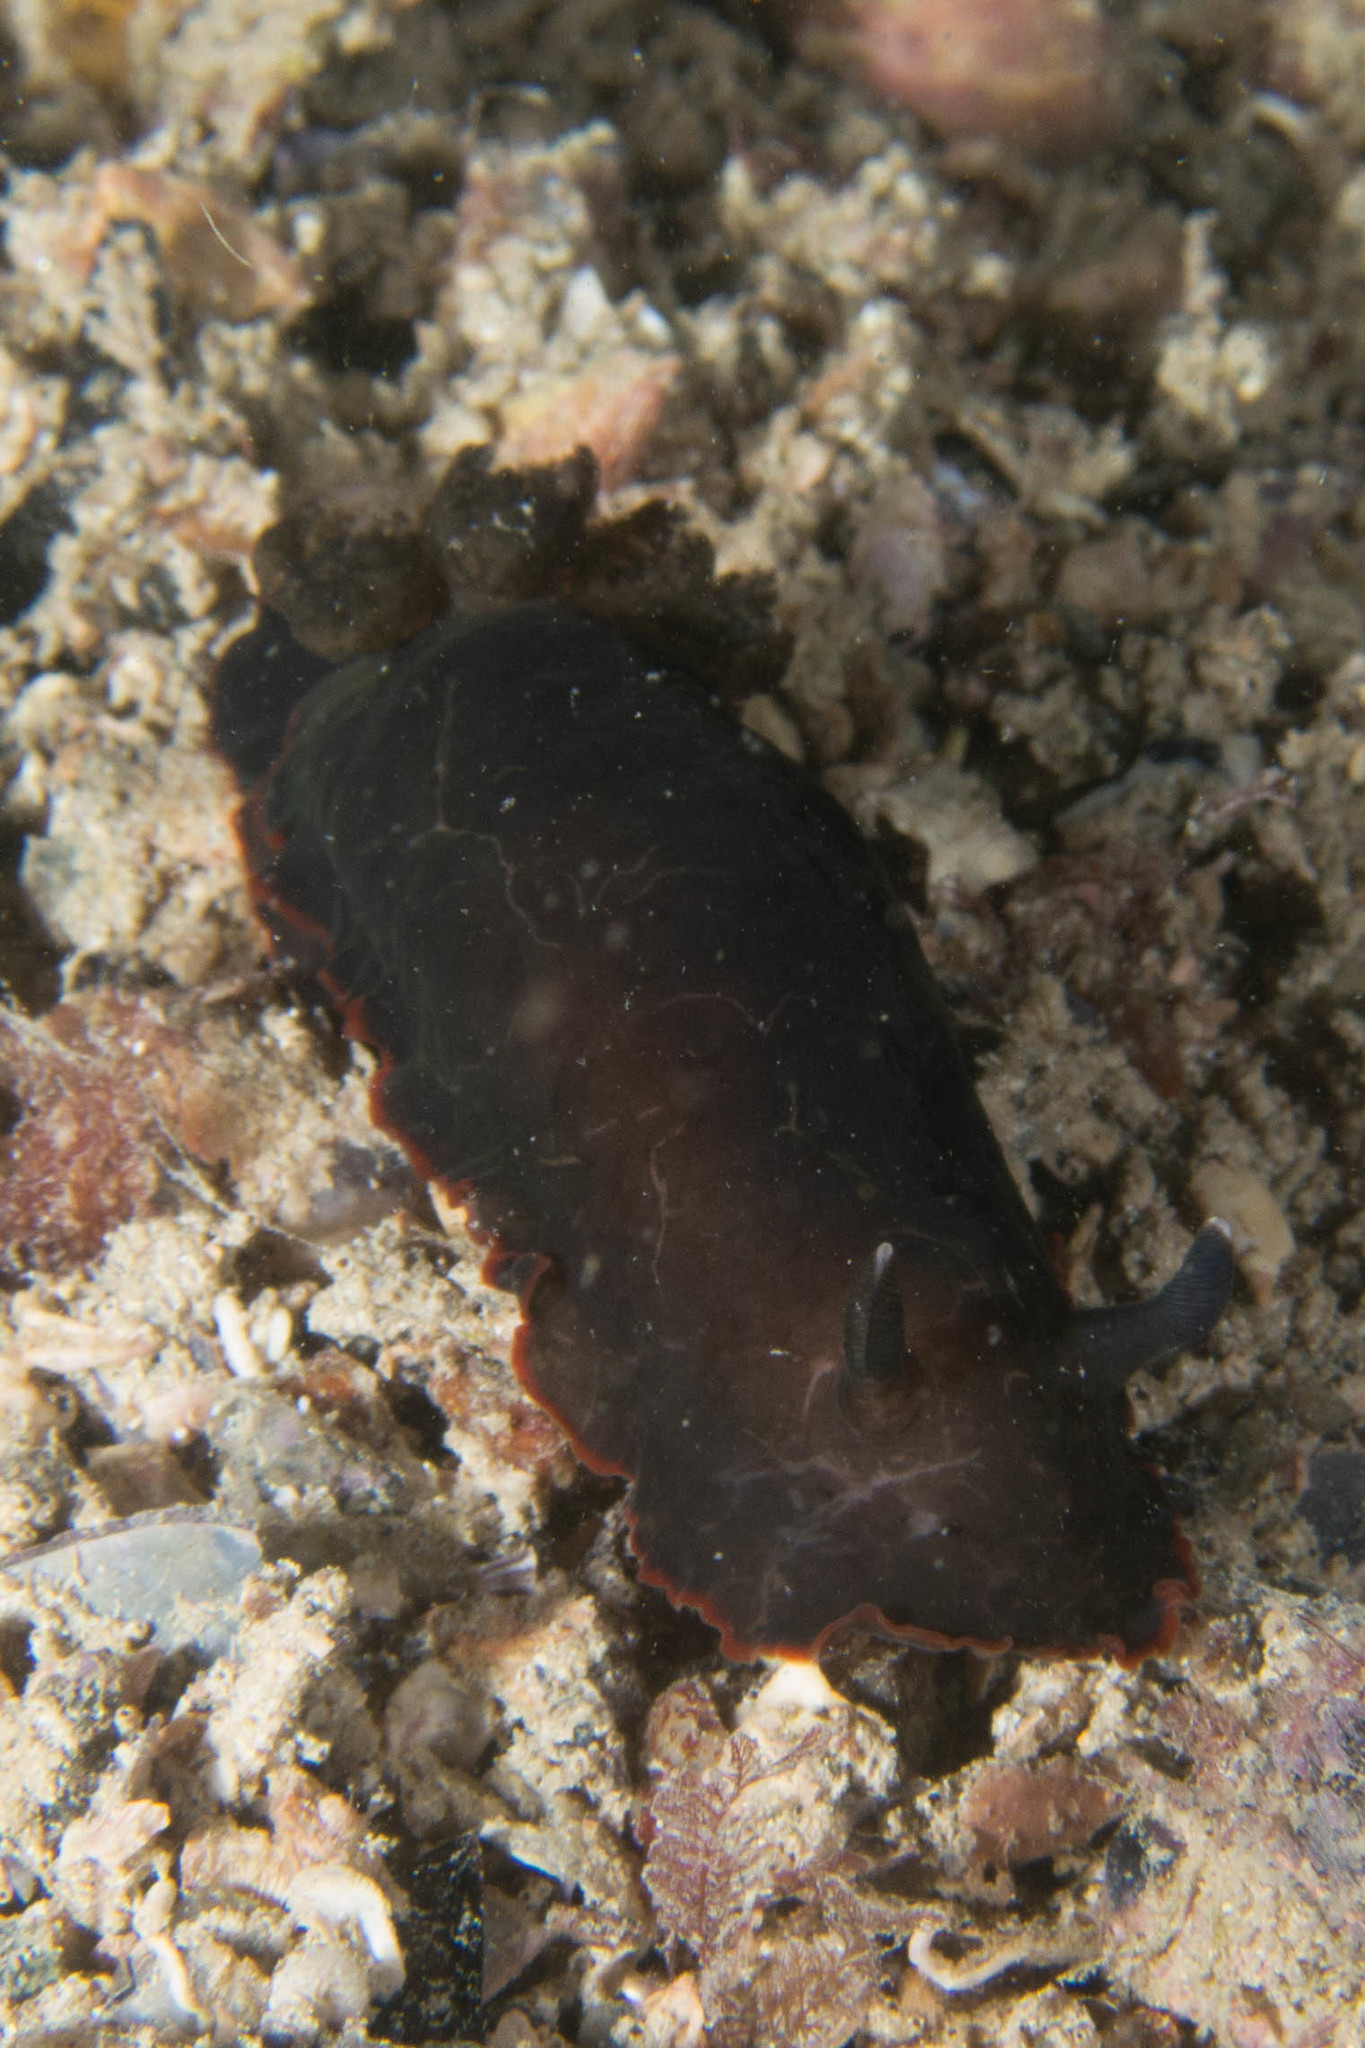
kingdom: Animalia
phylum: Mollusca
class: Gastropoda
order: Nudibranchia
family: Dendrodorididae
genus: Dendrodoris
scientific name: Dendrodoris arborescens
